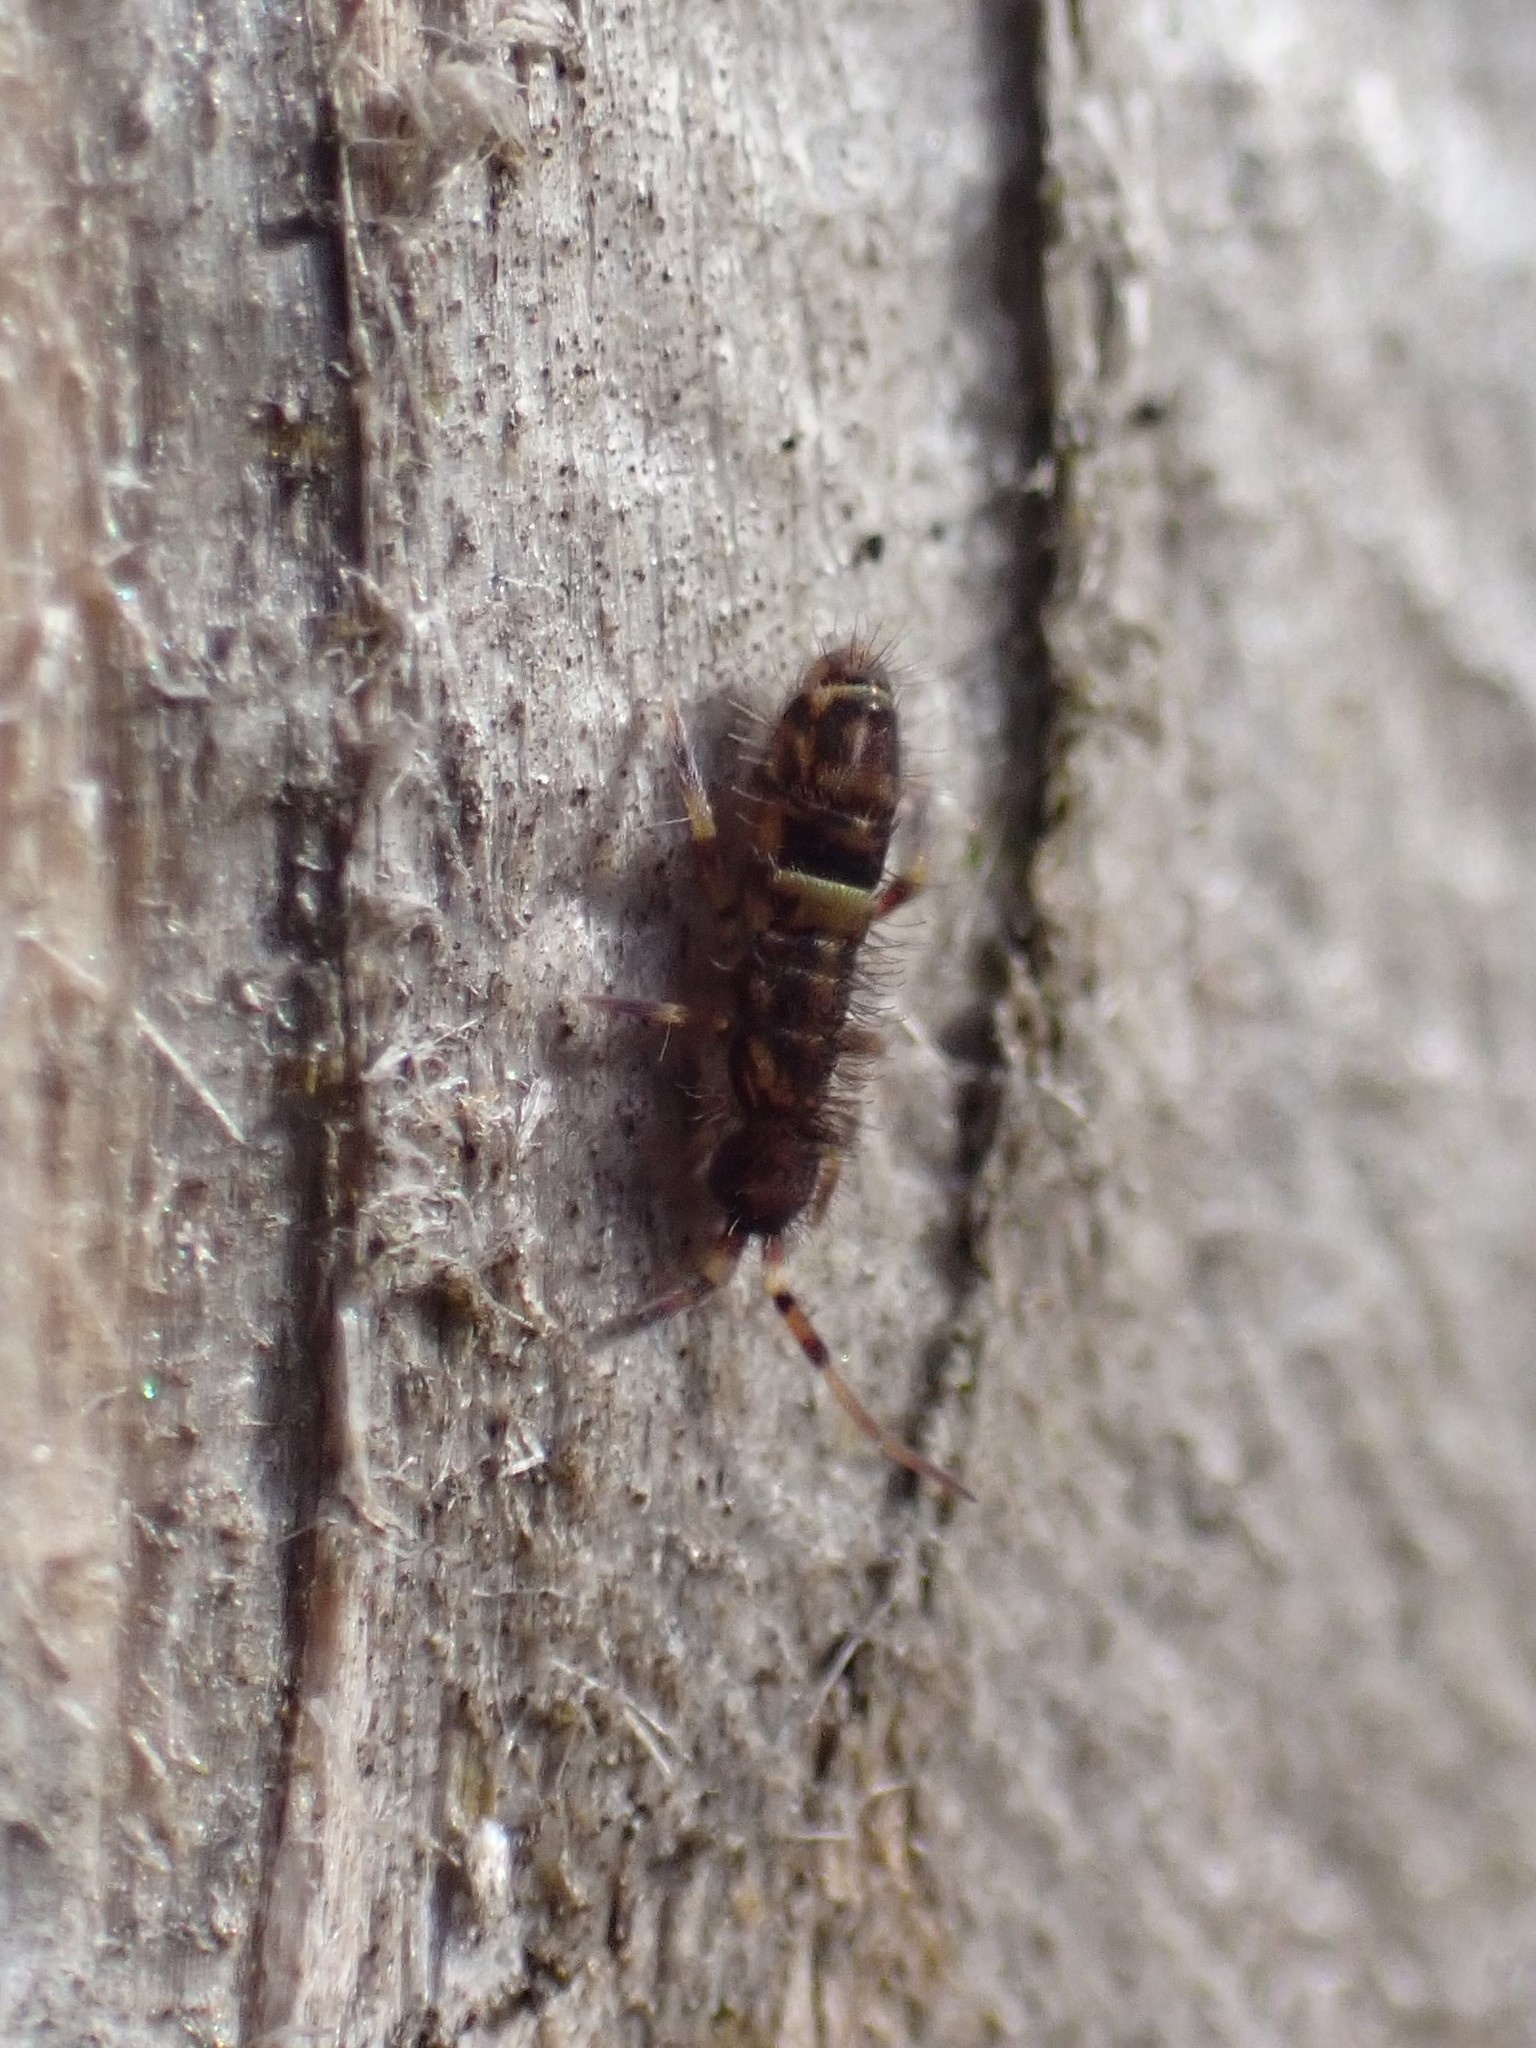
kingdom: Animalia
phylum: Arthropoda
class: Collembola
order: Entomobryomorpha
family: Orchesellidae
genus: Orchesella
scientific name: Orchesella cincta
